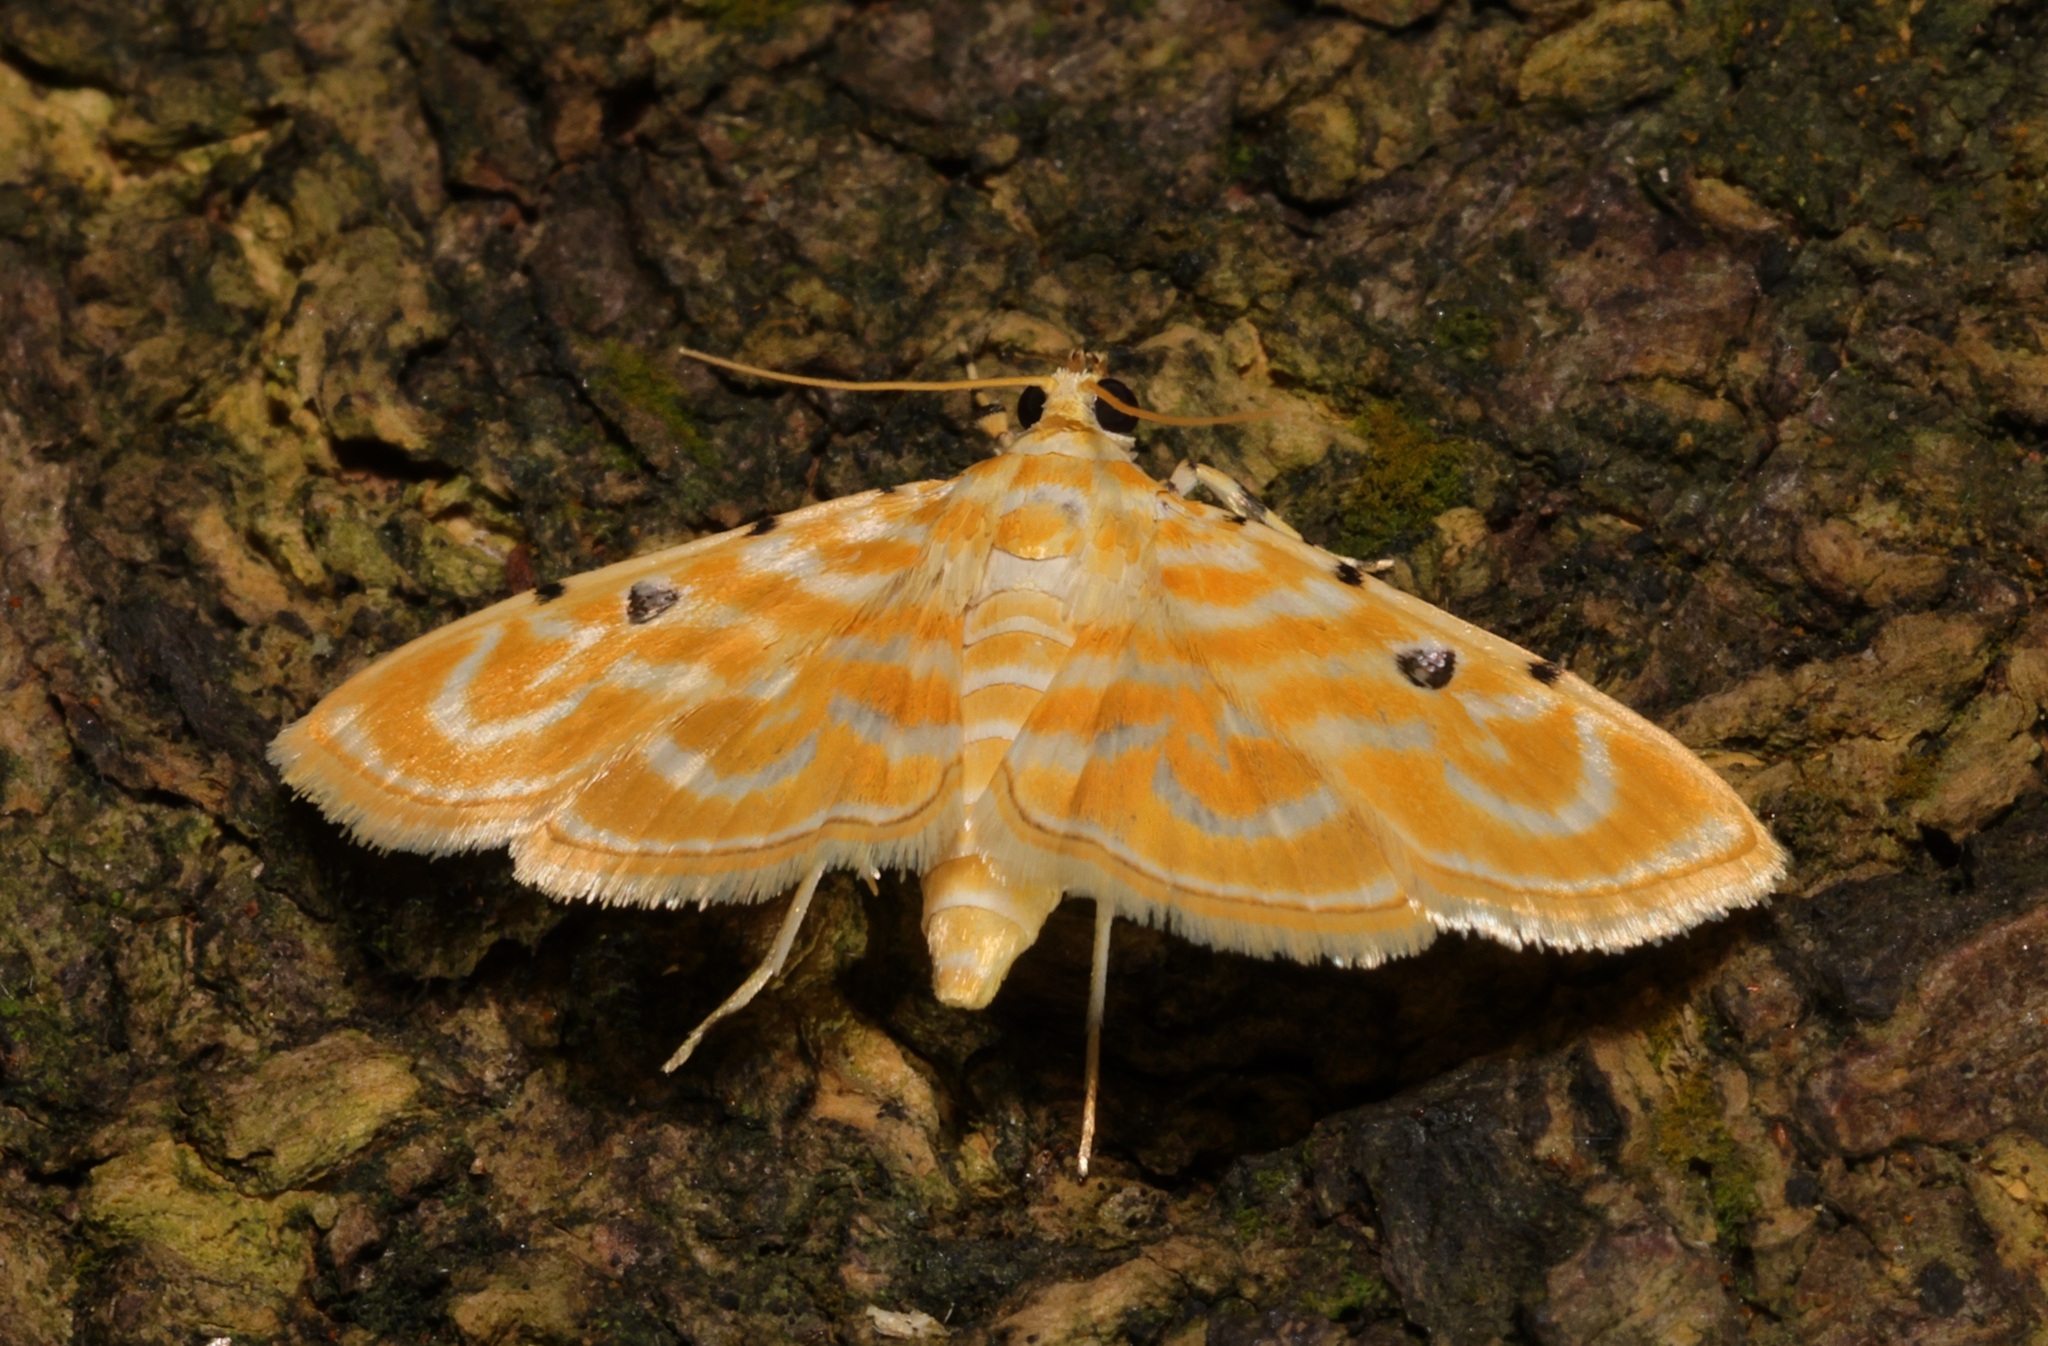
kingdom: Animalia
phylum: Arthropoda
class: Insecta
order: Lepidoptera
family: Crambidae
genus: Notarcha
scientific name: Notarcha aurolinealis
